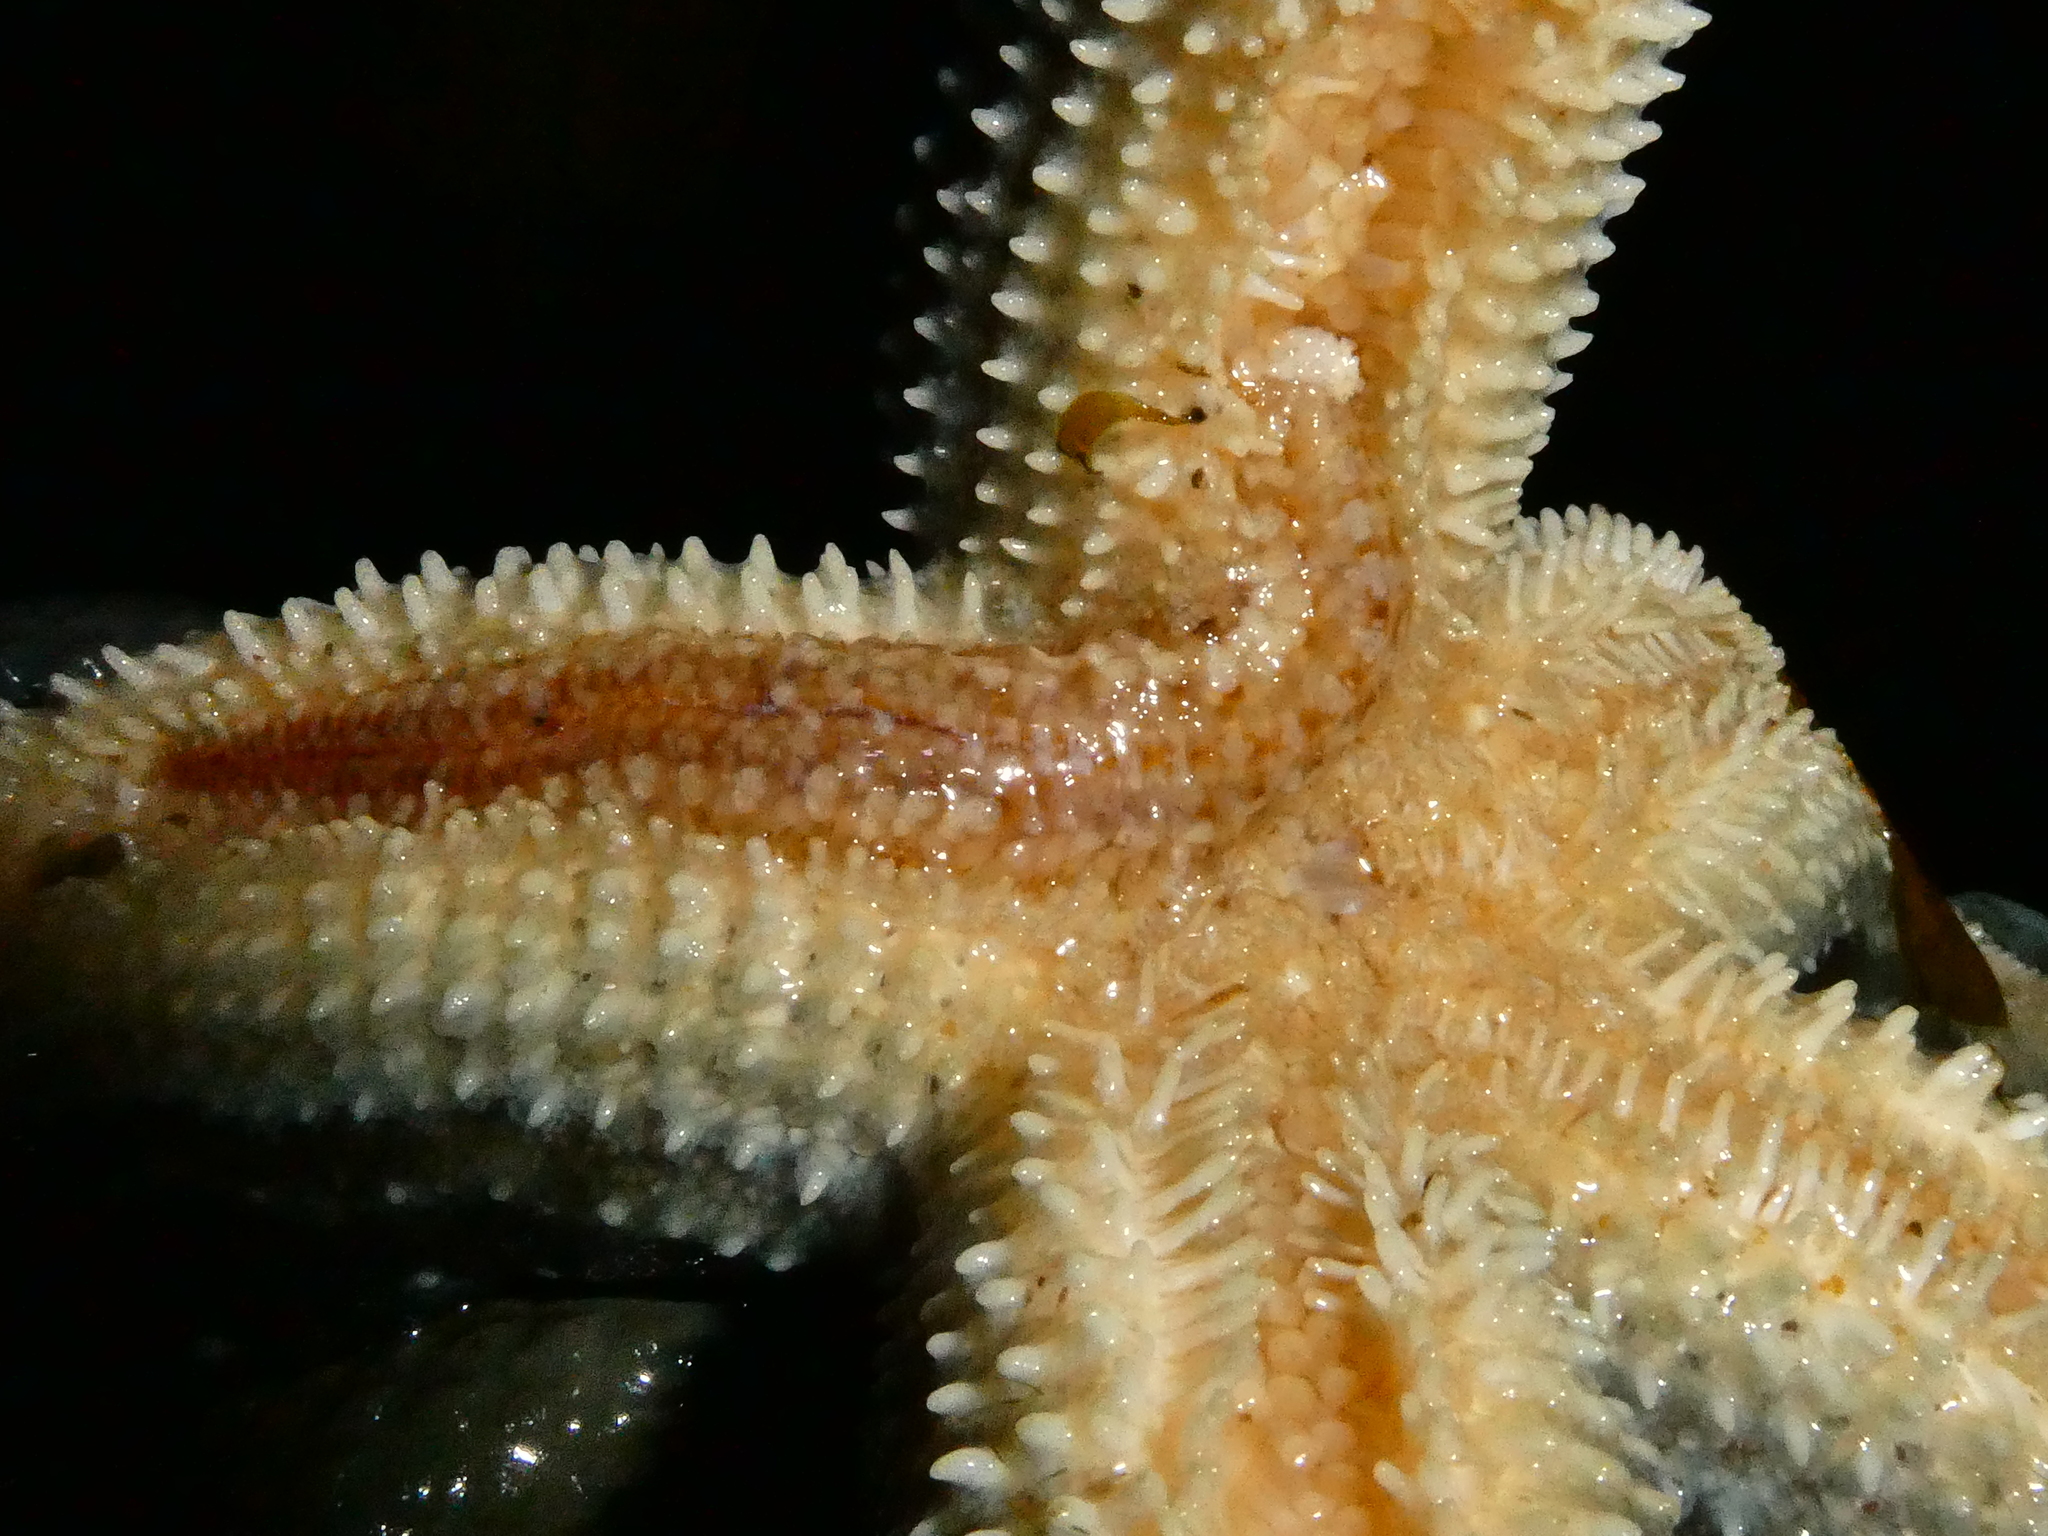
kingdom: Animalia
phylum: Annelida
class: Polychaeta
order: Phyllodocida
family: Polynoidae
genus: Arctonoe
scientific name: Arctonoe fragilis
